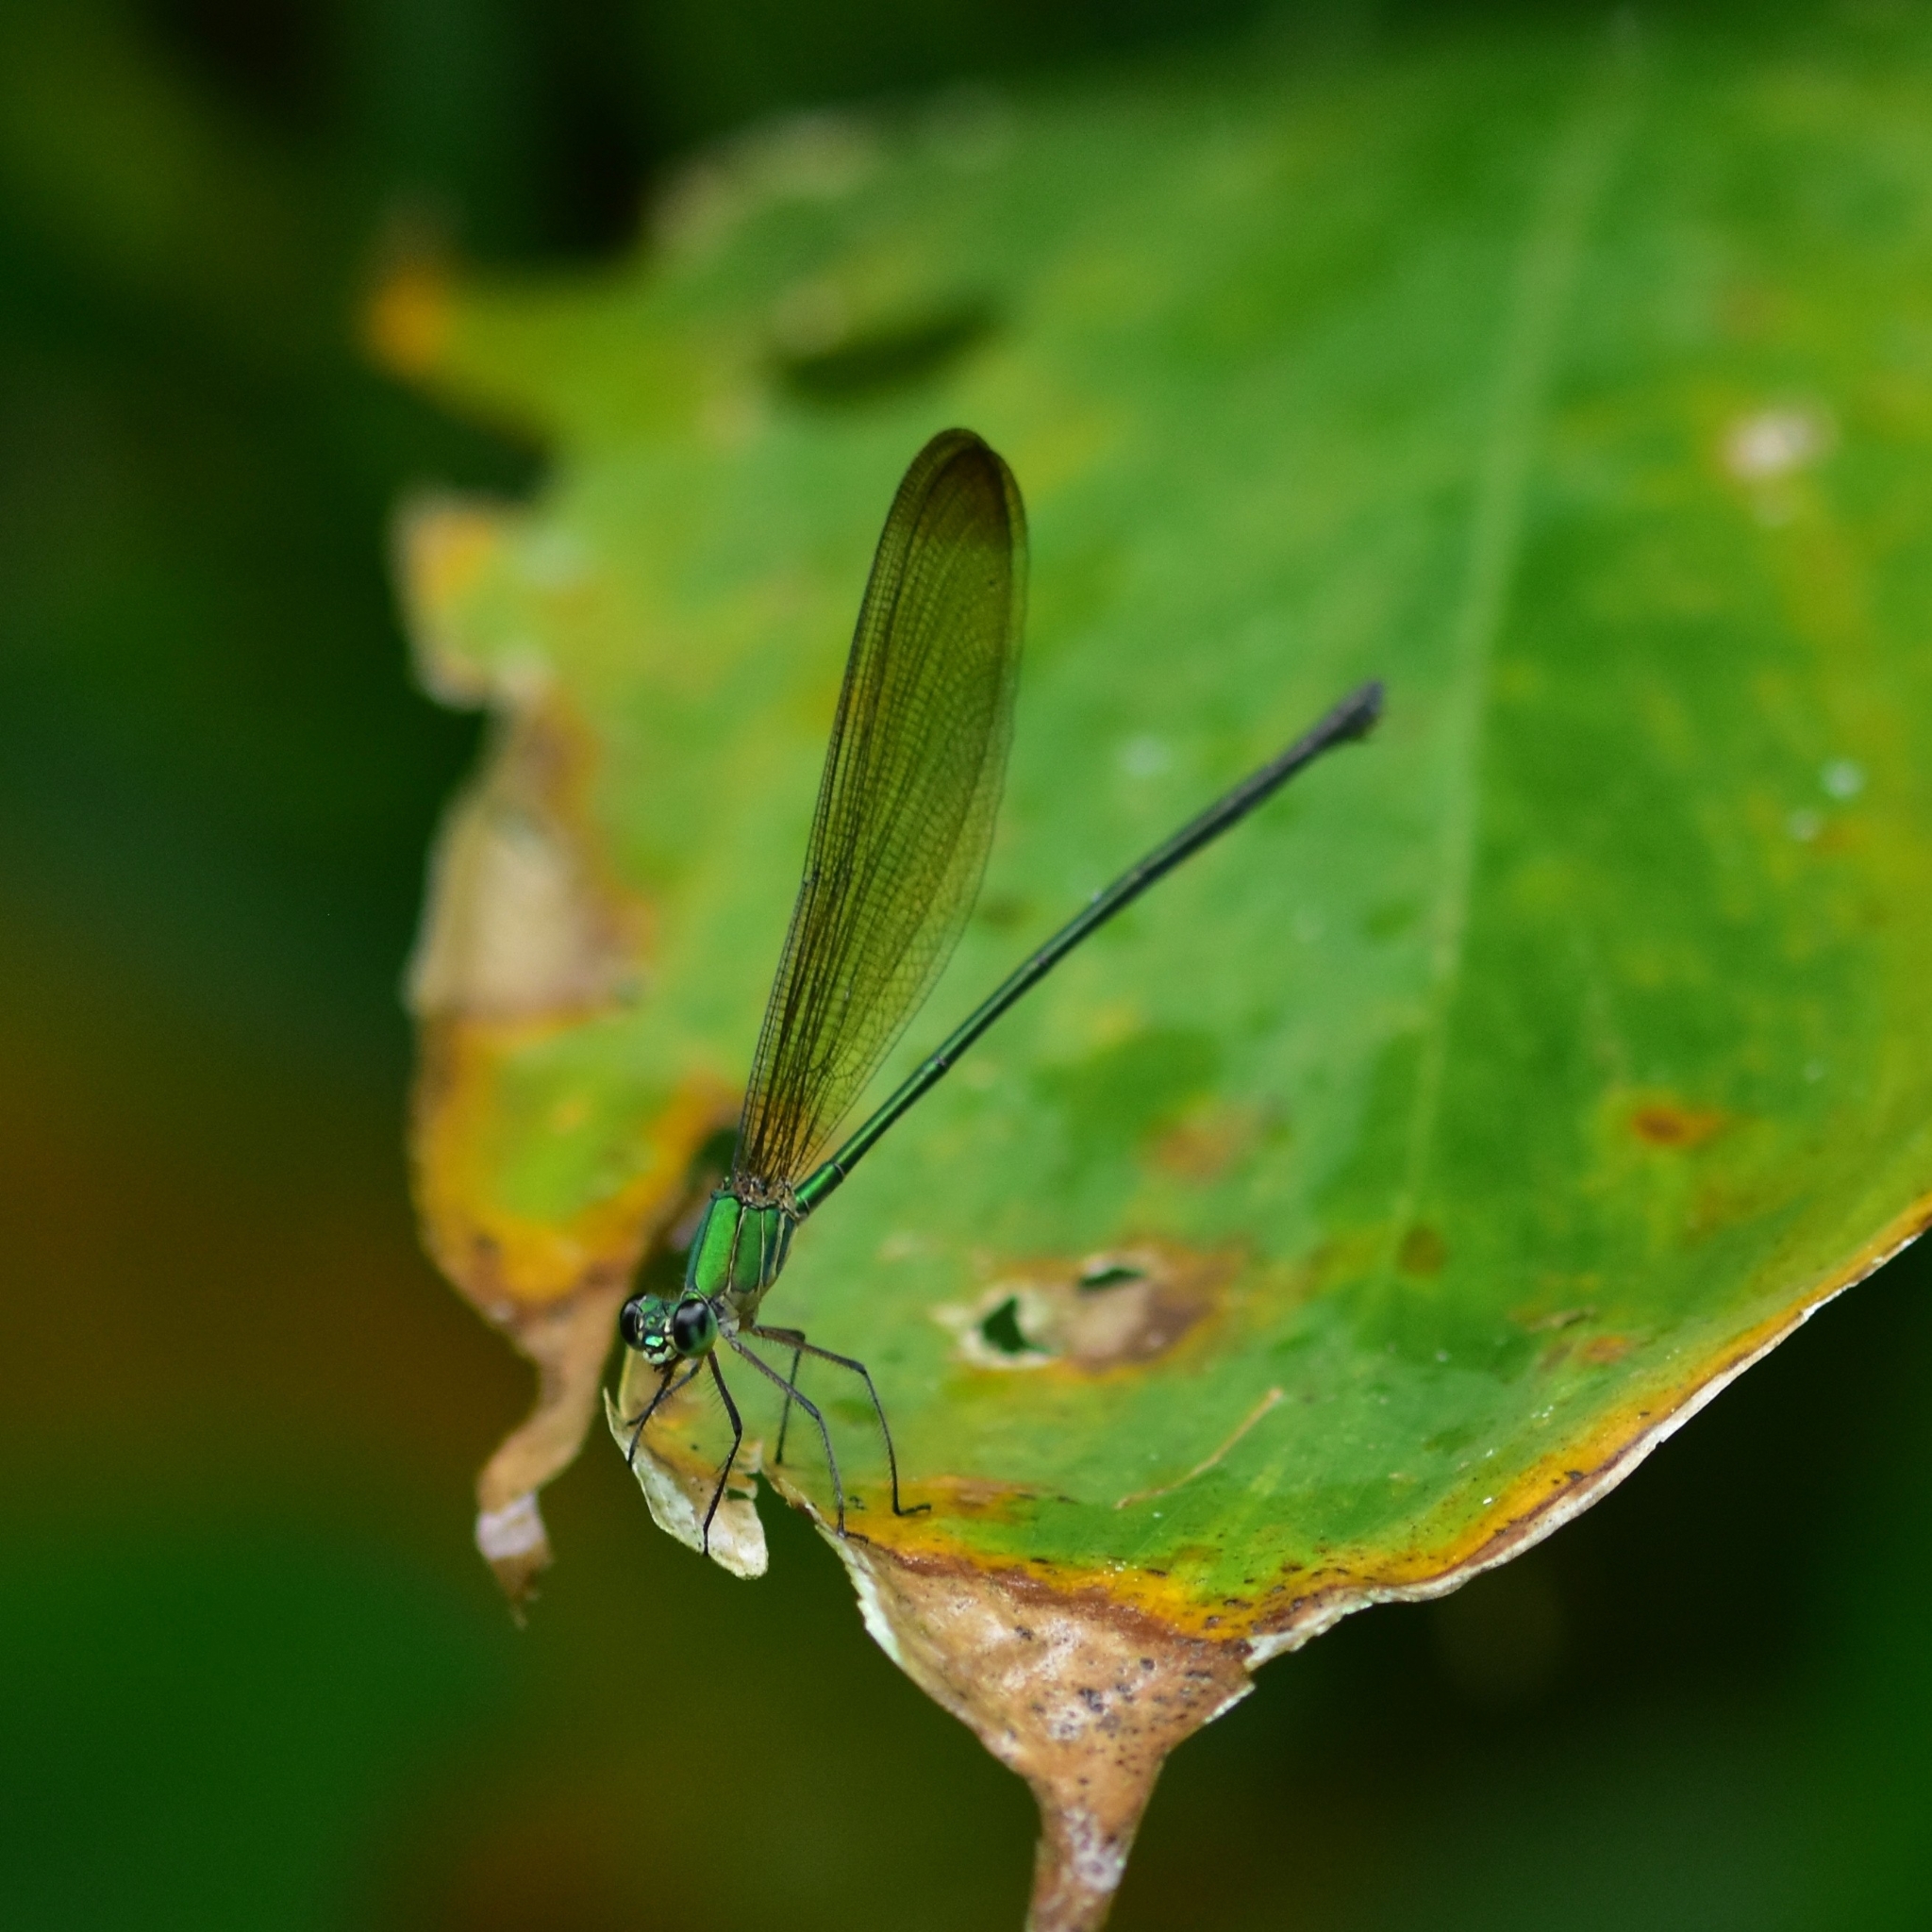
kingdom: Animalia
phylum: Arthropoda
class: Insecta
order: Odonata
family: Calopterygidae
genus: Vestalis
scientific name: Vestalis apicalis
